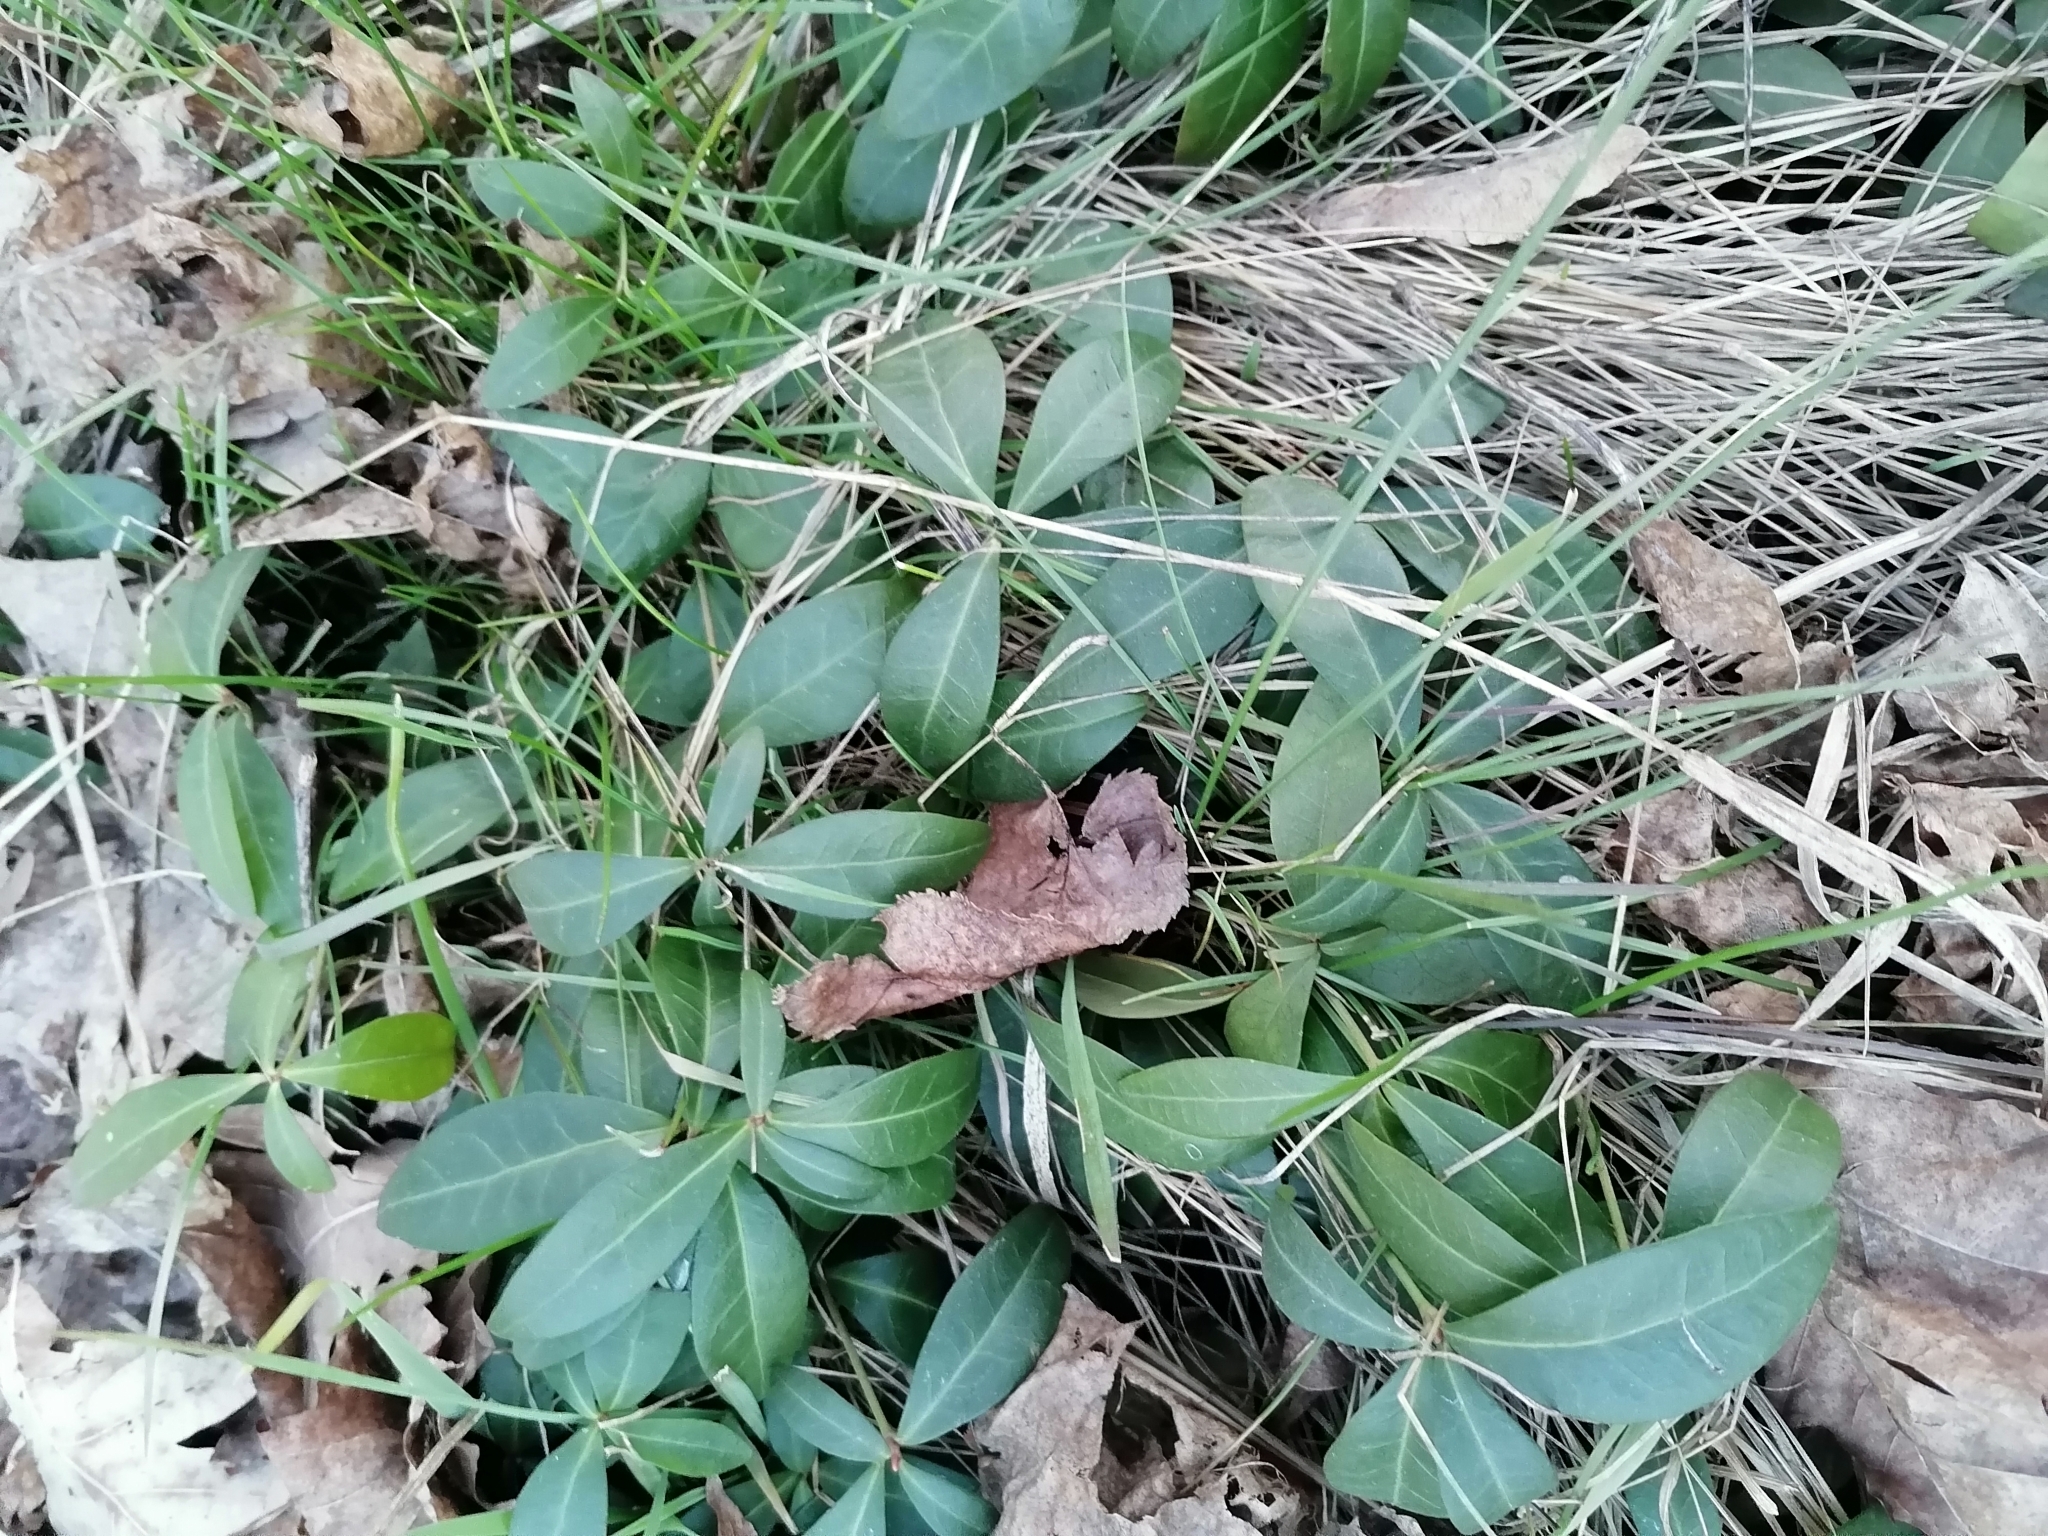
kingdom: Plantae
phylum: Tracheophyta
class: Magnoliopsida
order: Gentianales
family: Apocynaceae
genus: Vinca
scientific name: Vinca minor
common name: Lesser periwinkle
